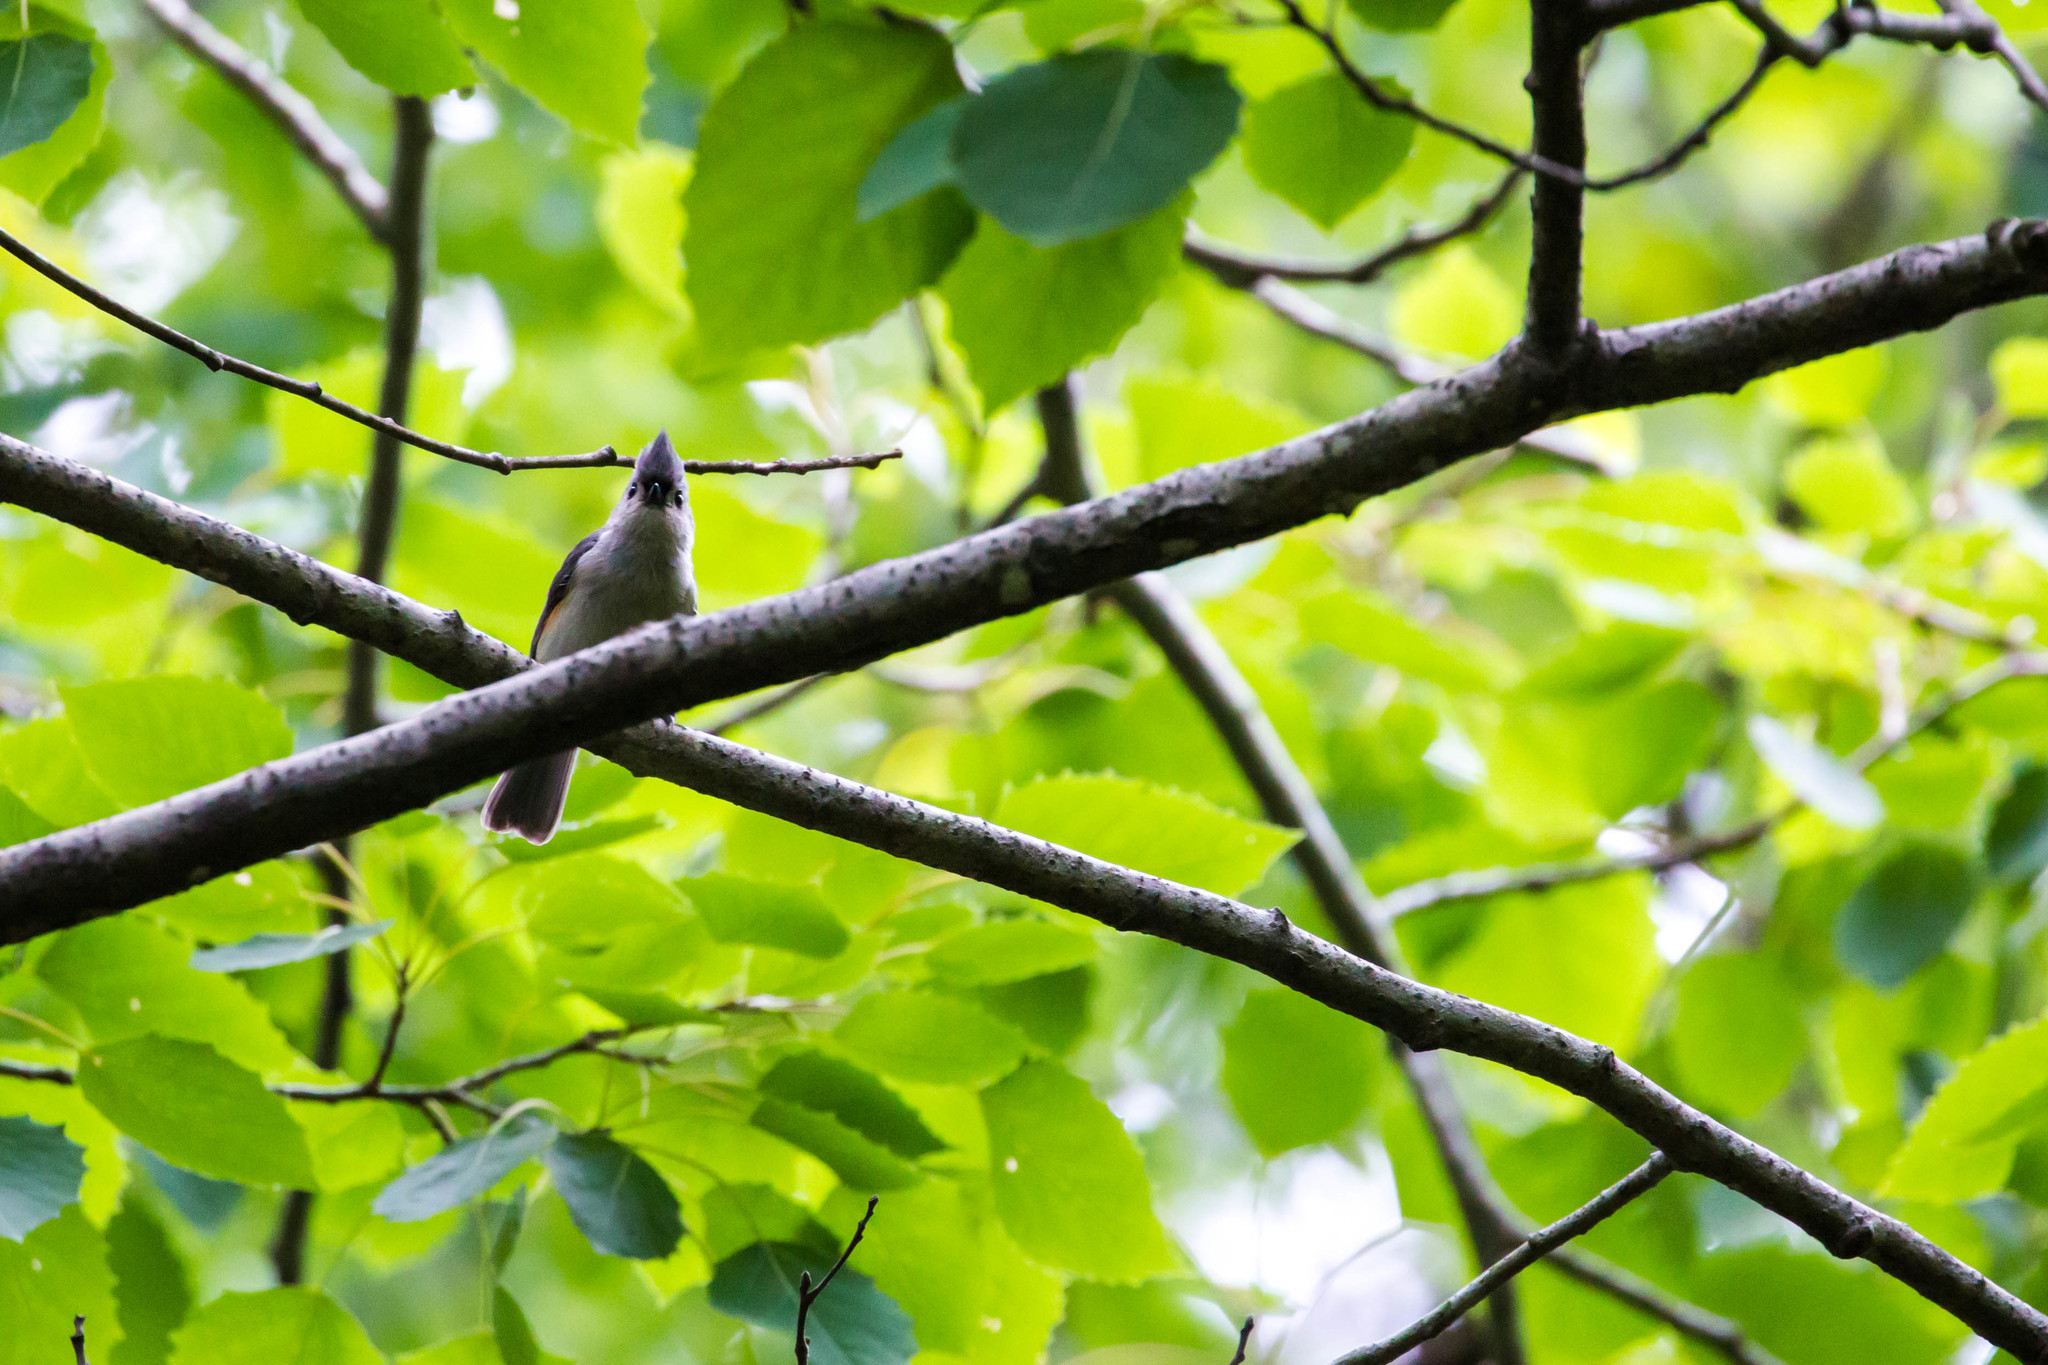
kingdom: Animalia
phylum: Chordata
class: Aves
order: Passeriformes
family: Paridae
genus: Baeolophus
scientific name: Baeolophus bicolor
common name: Tufted titmouse
